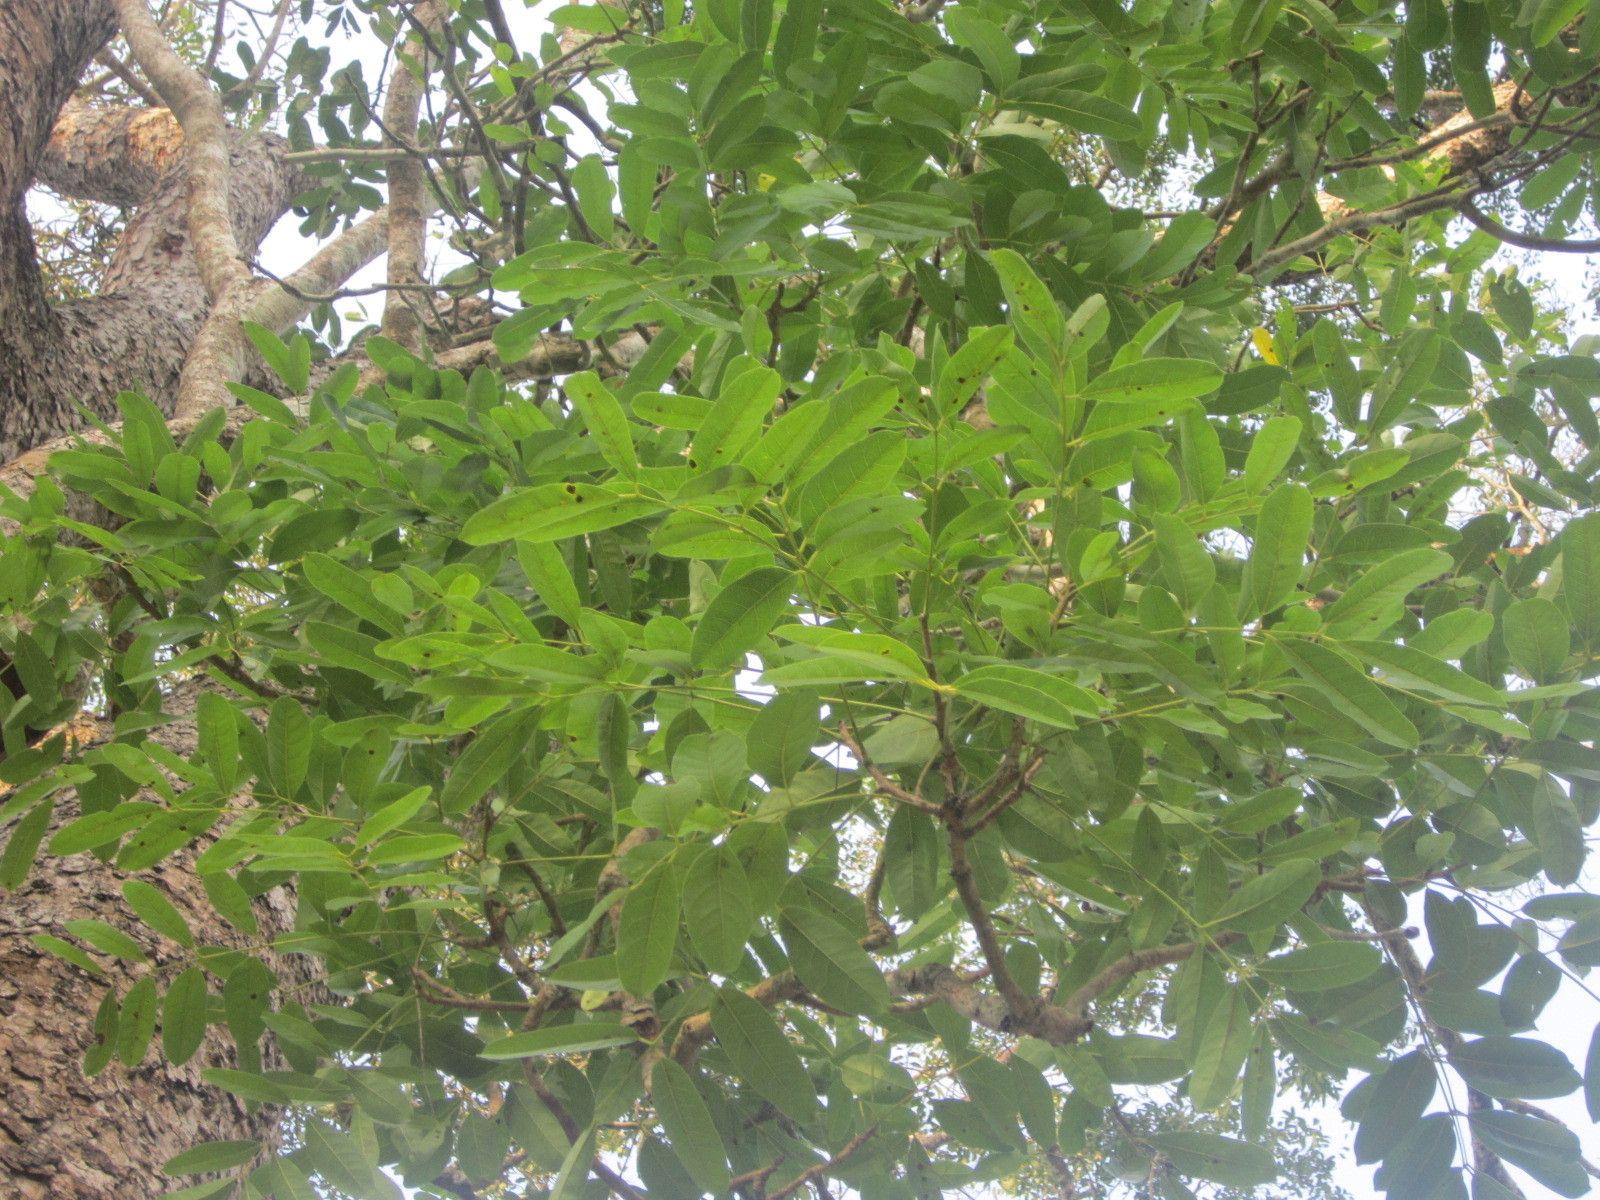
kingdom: Plantae
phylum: Tracheophyta
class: Magnoliopsida
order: Sapindales
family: Meliaceae
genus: Khaya
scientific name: Khaya senegalensis
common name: Senegal mahogany
